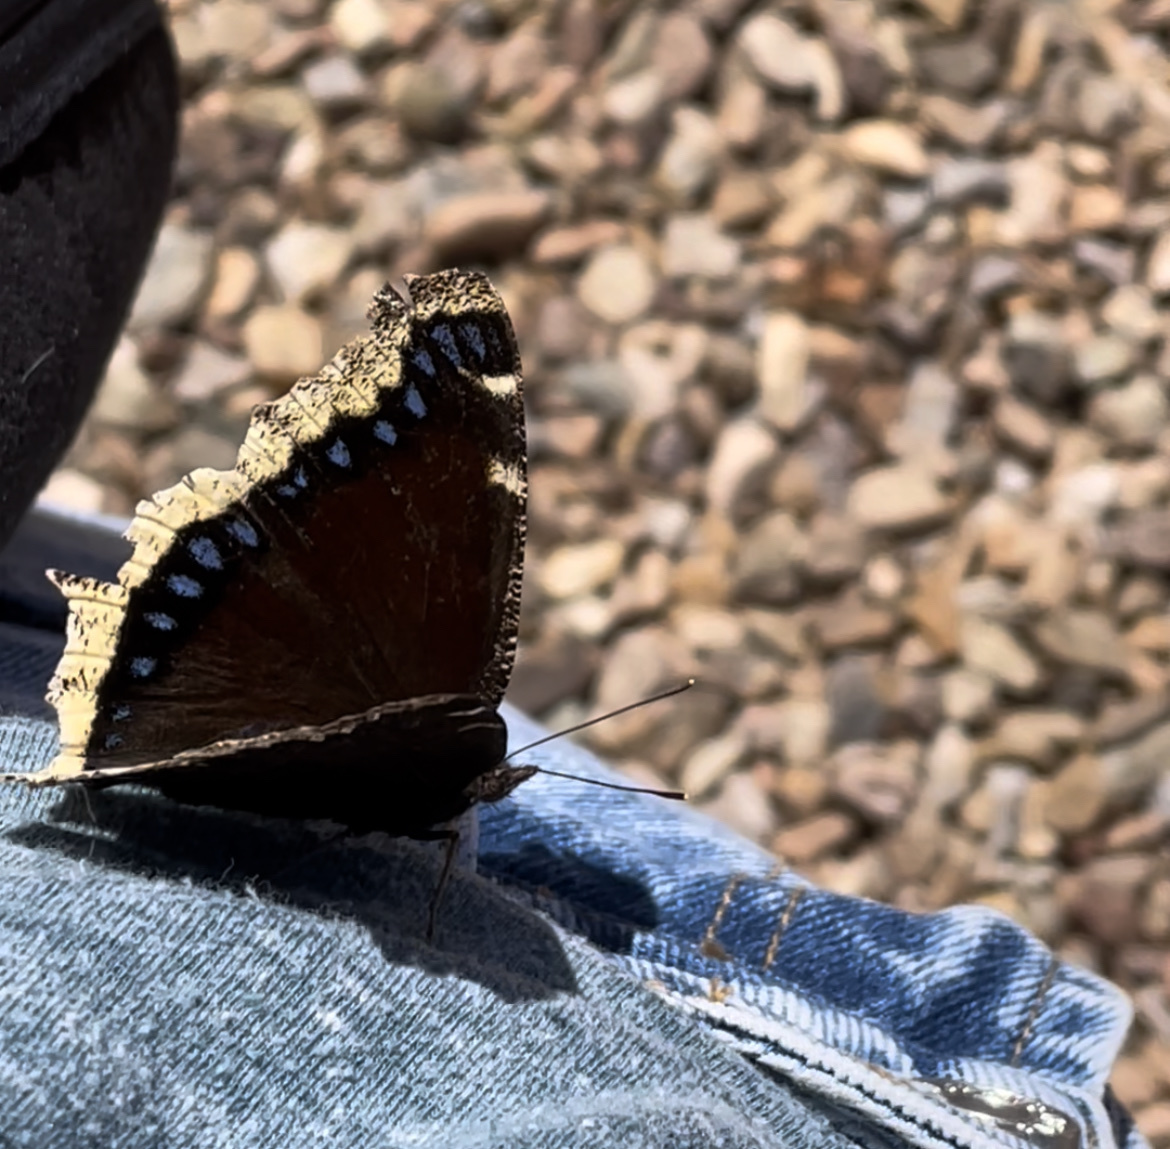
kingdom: Animalia
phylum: Arthropoda
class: Insecta
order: Lepidoptera
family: Nymphalidae
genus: Nymphalis
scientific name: Nymphalis antiopa
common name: Camberwell beauty
